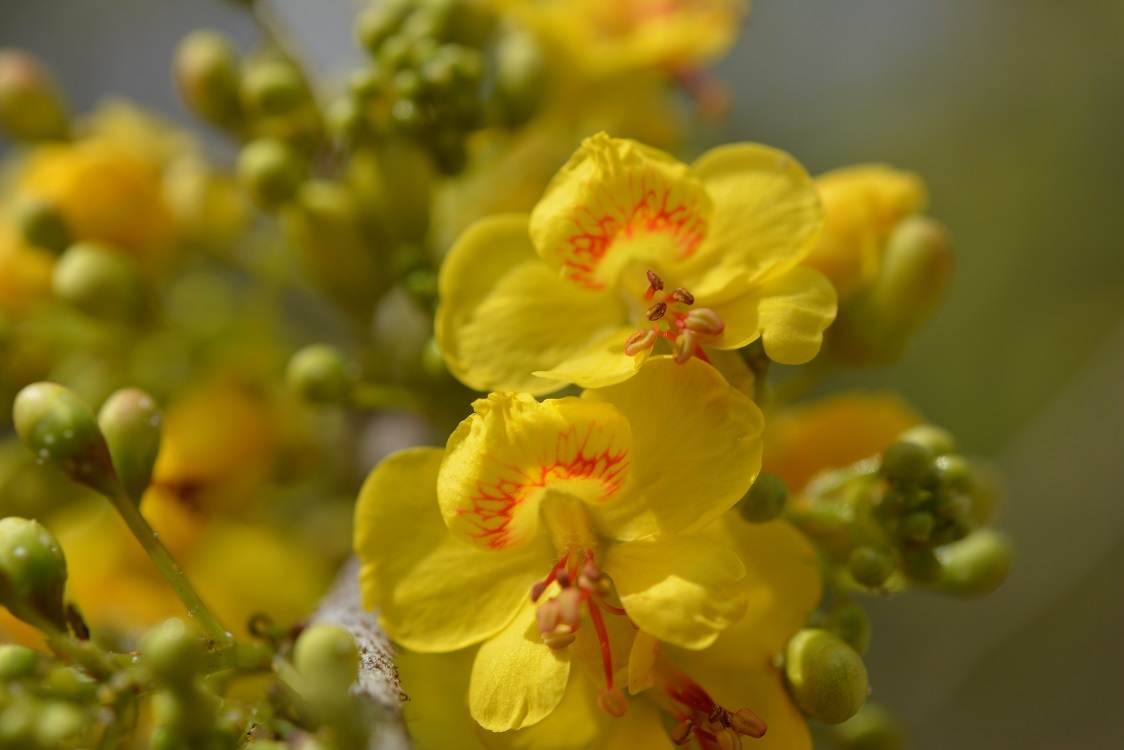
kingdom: Plantae
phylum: Tracheophyta
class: Magnoliopsida
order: Fabales
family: Fabaceae
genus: Tara
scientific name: Tara cacalaco
